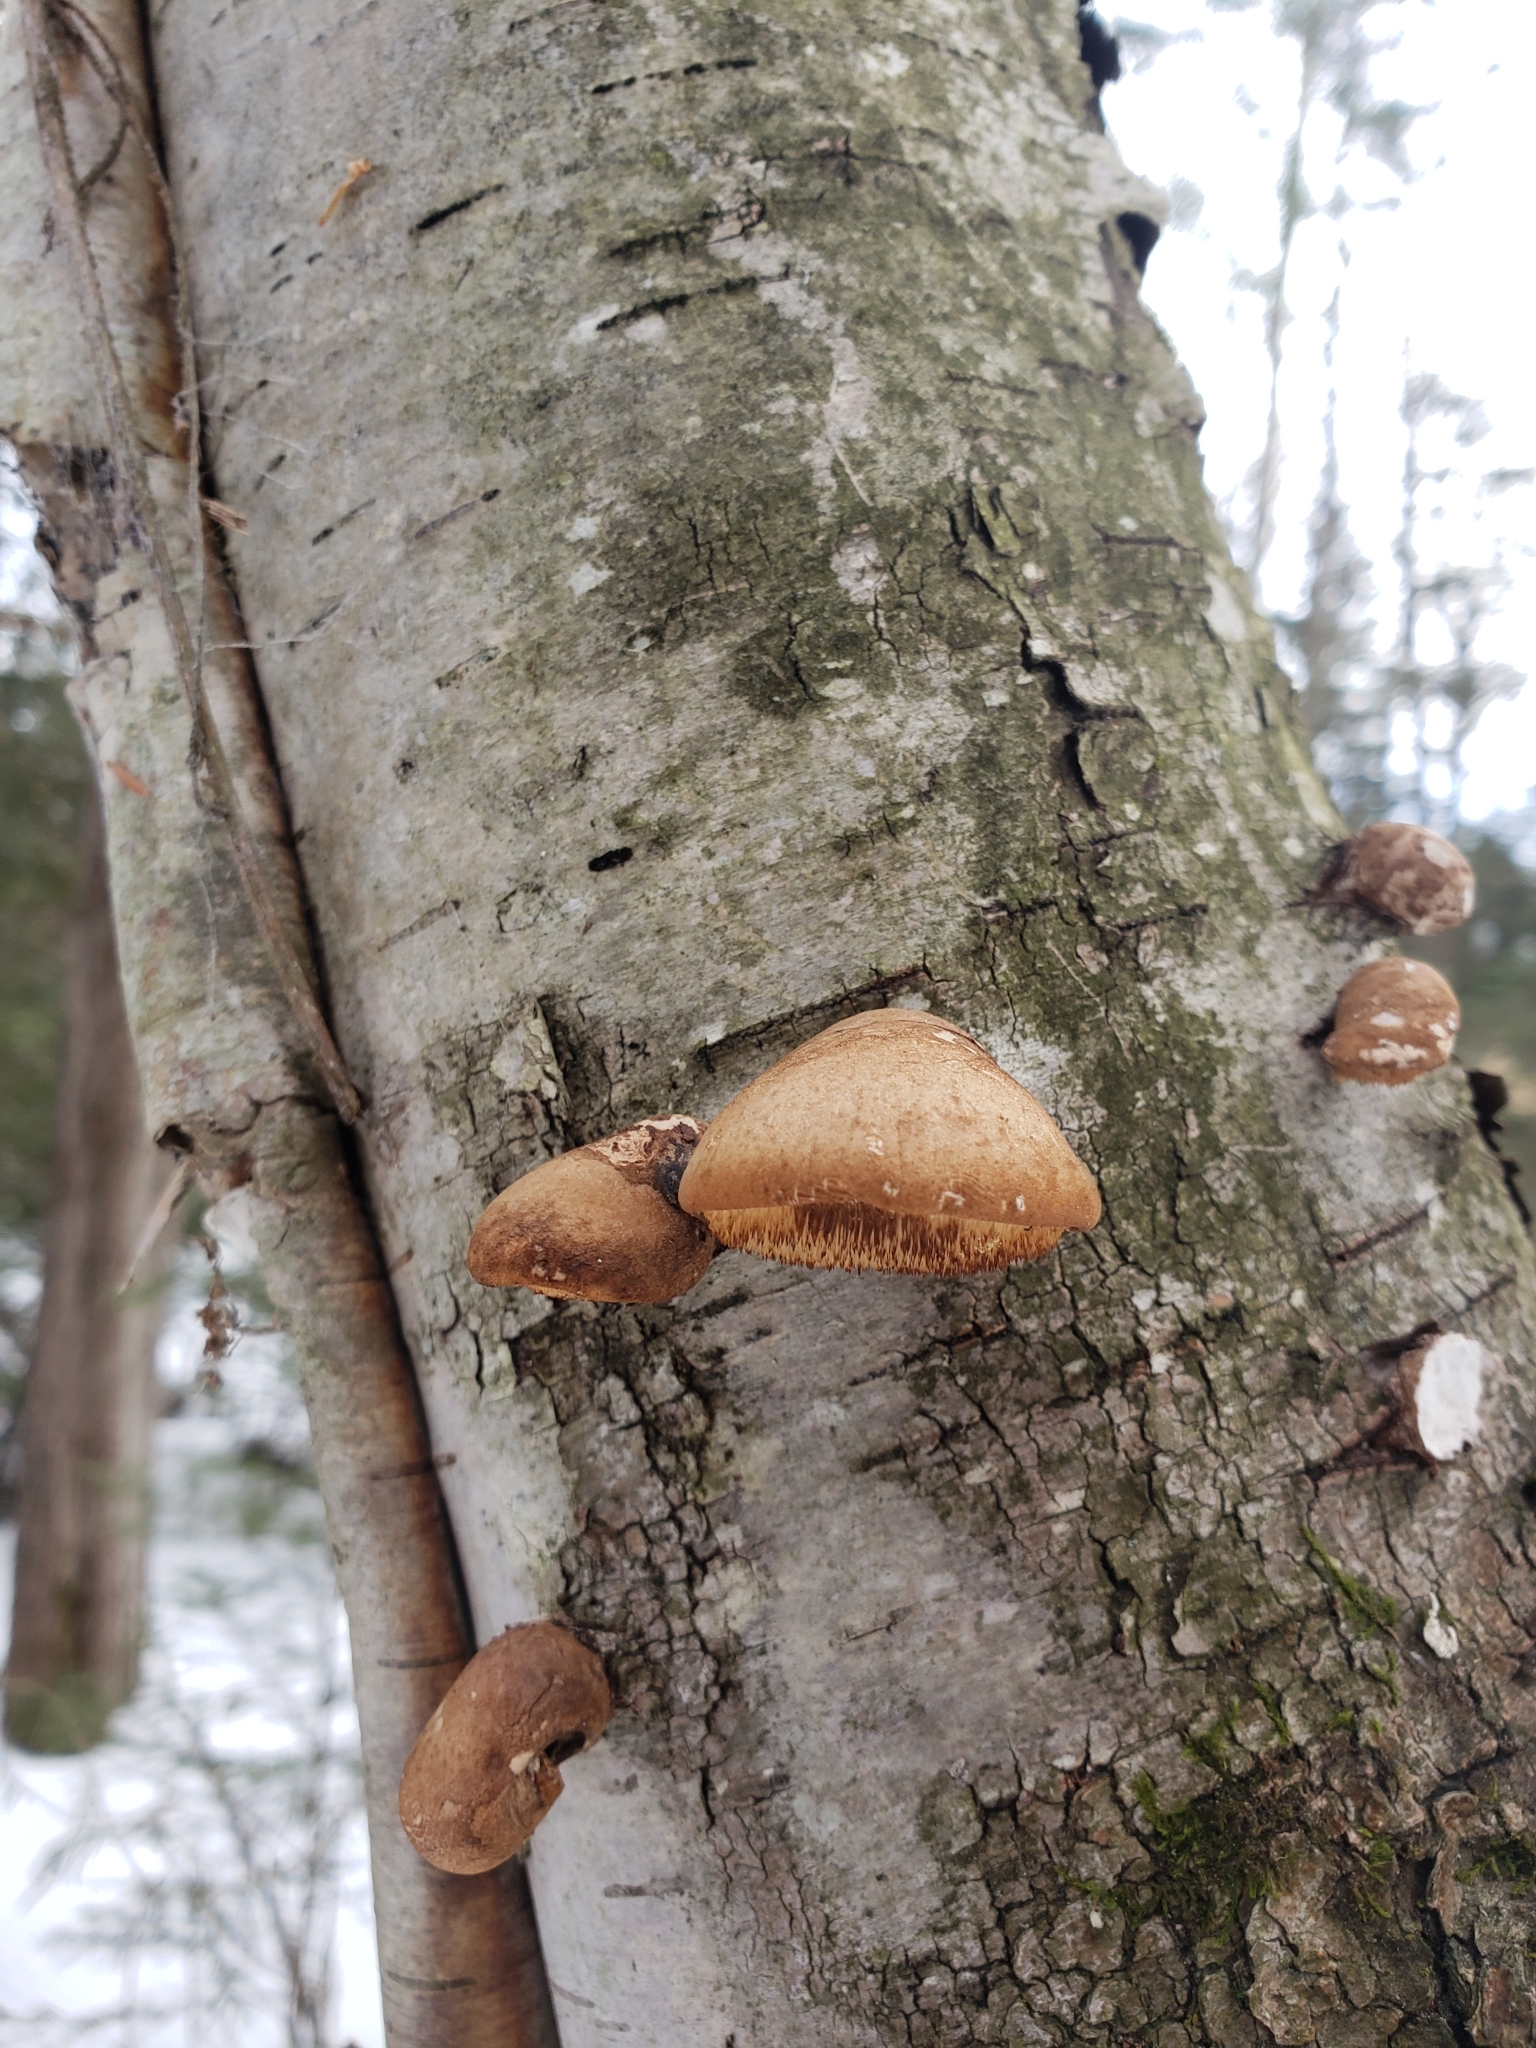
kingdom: Fungi
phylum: Basidiomycota
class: Agaricomycetes
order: Polyporales
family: Fomitopsidaceae
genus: Fomitopsis
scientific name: Fomitopsis betulina
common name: Birch polypore
